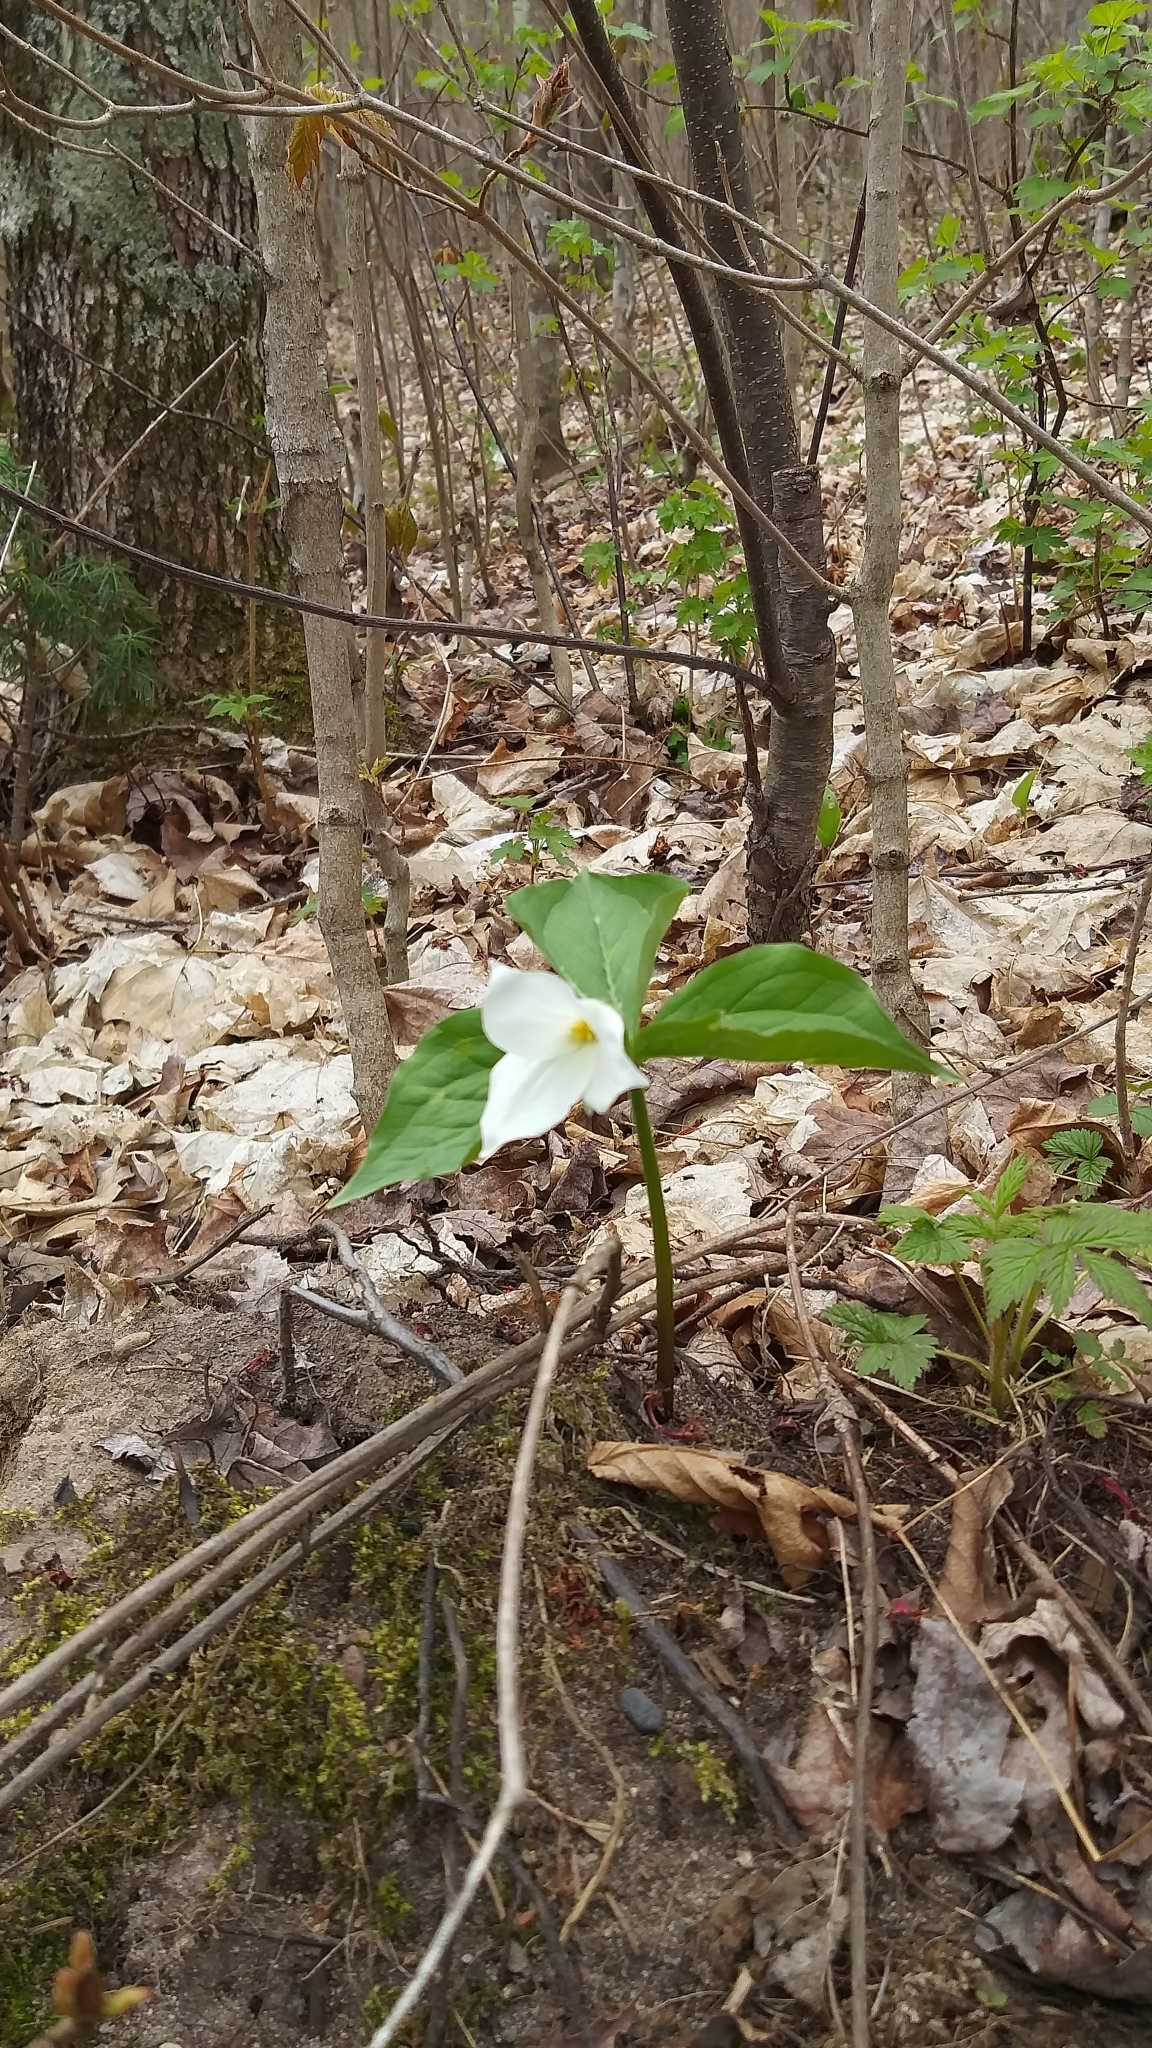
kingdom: Plantae
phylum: Tracheophyta
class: Liliopsida
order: Liliales
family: Melanthiaceae
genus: Trillium
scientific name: Trillium grandiflorum
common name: Great white trillium
